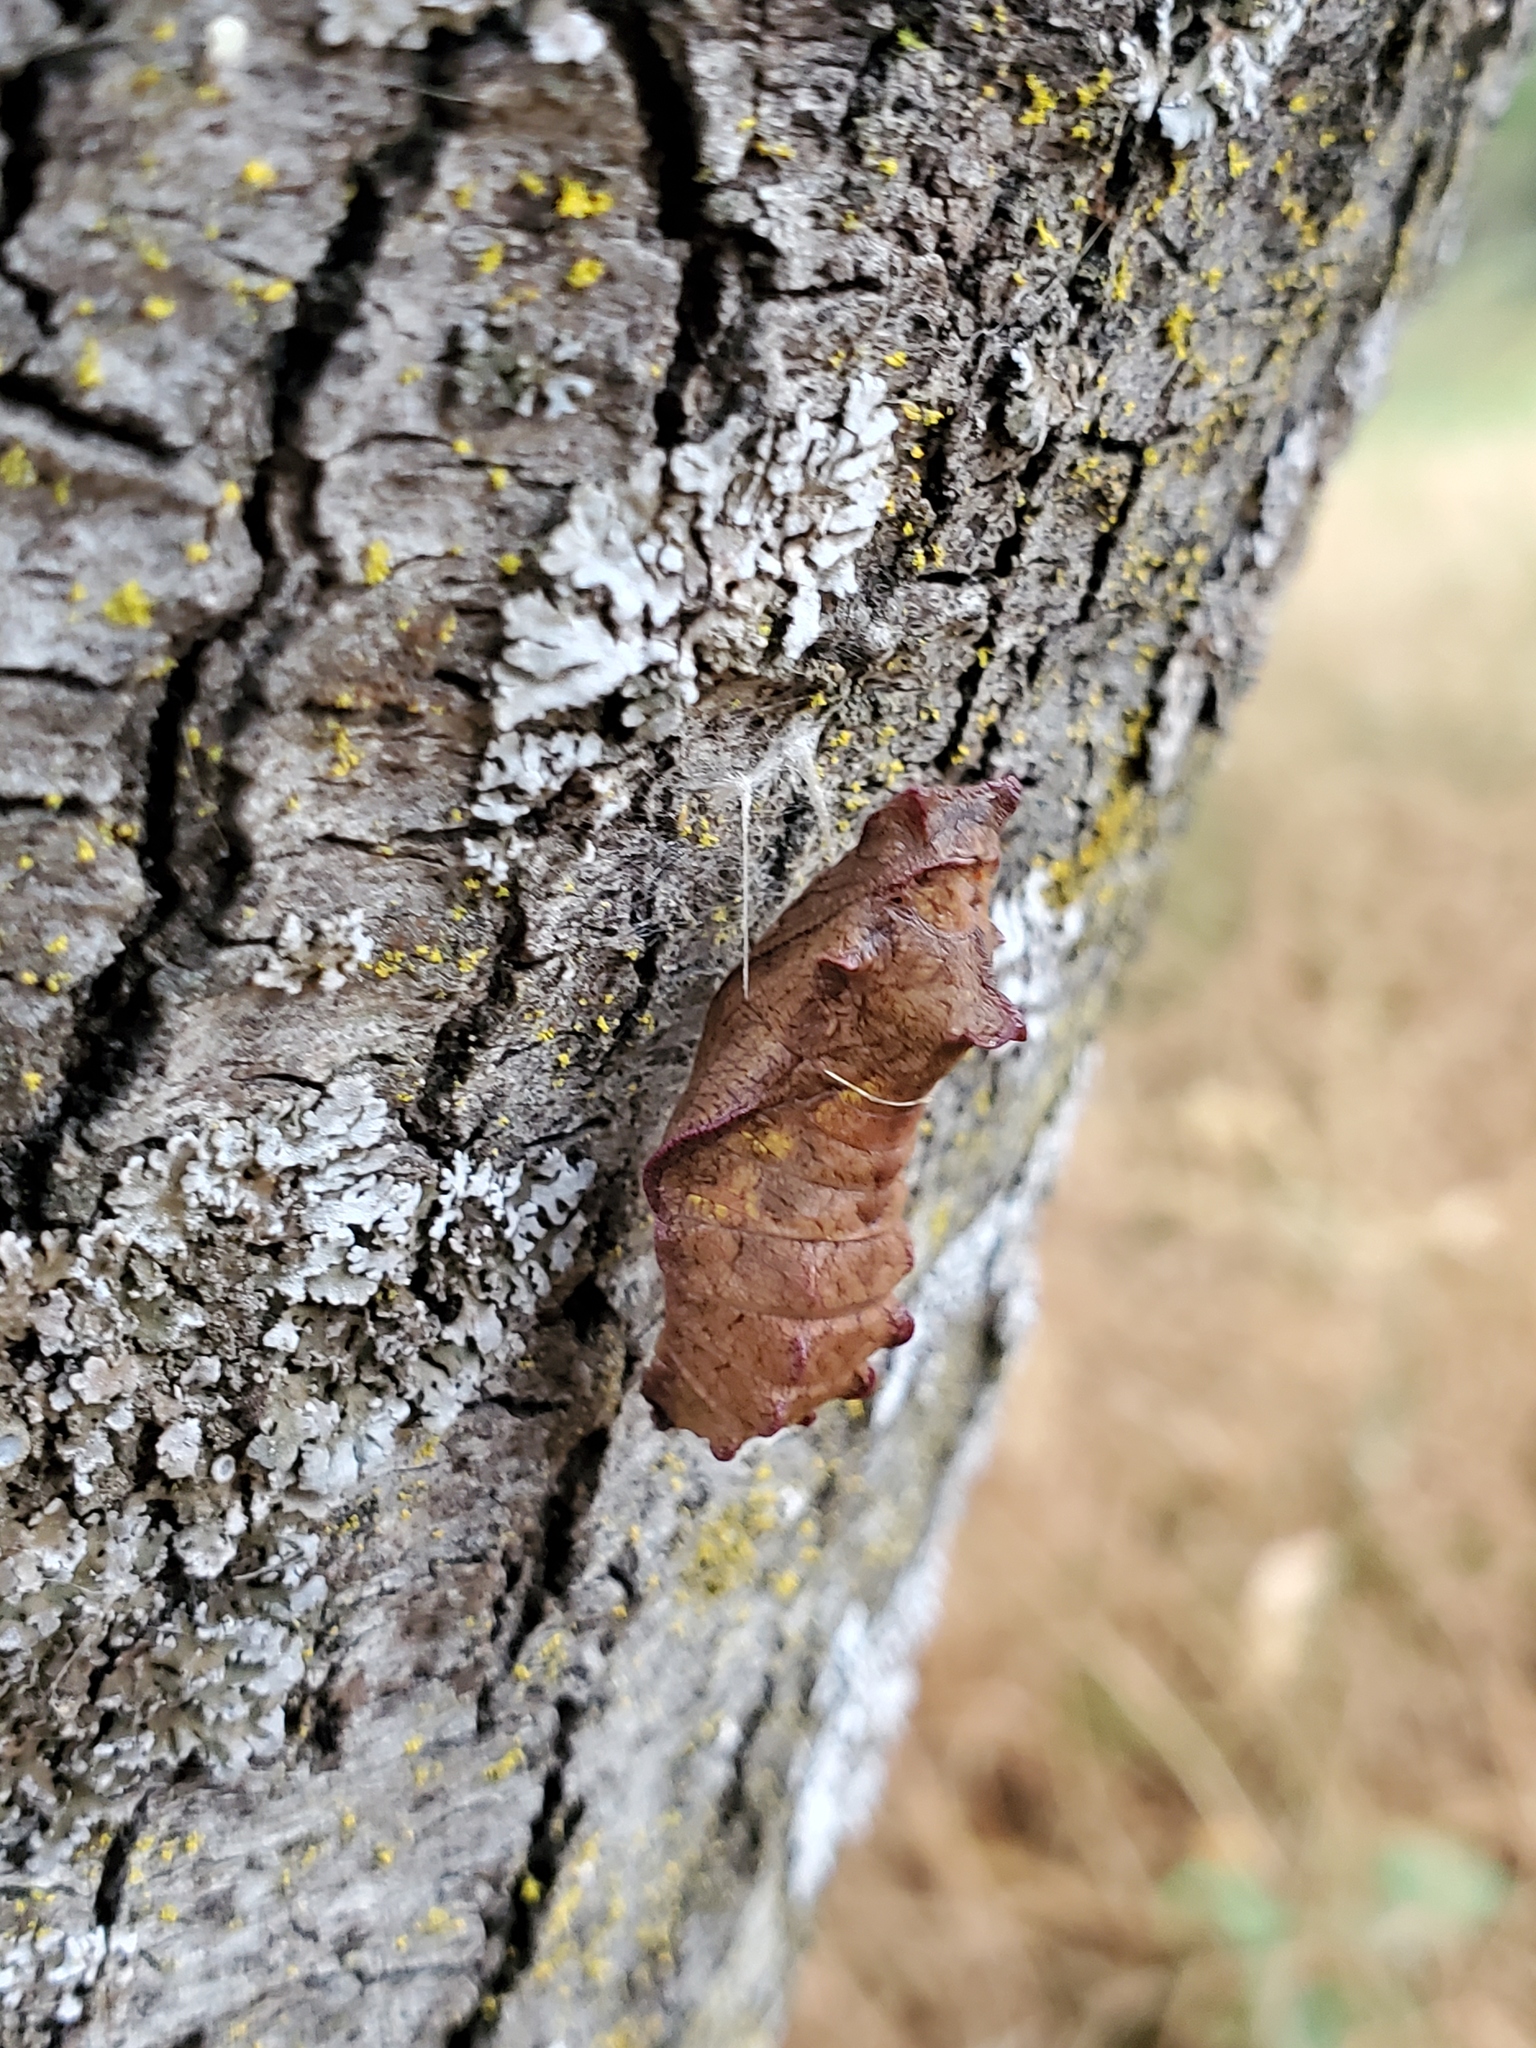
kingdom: Animalia
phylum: Arthropoda
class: Insecta
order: Lepidoptera
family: Papilionidae
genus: Battus
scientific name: Battus philenor
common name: Pipevine swallowtail
